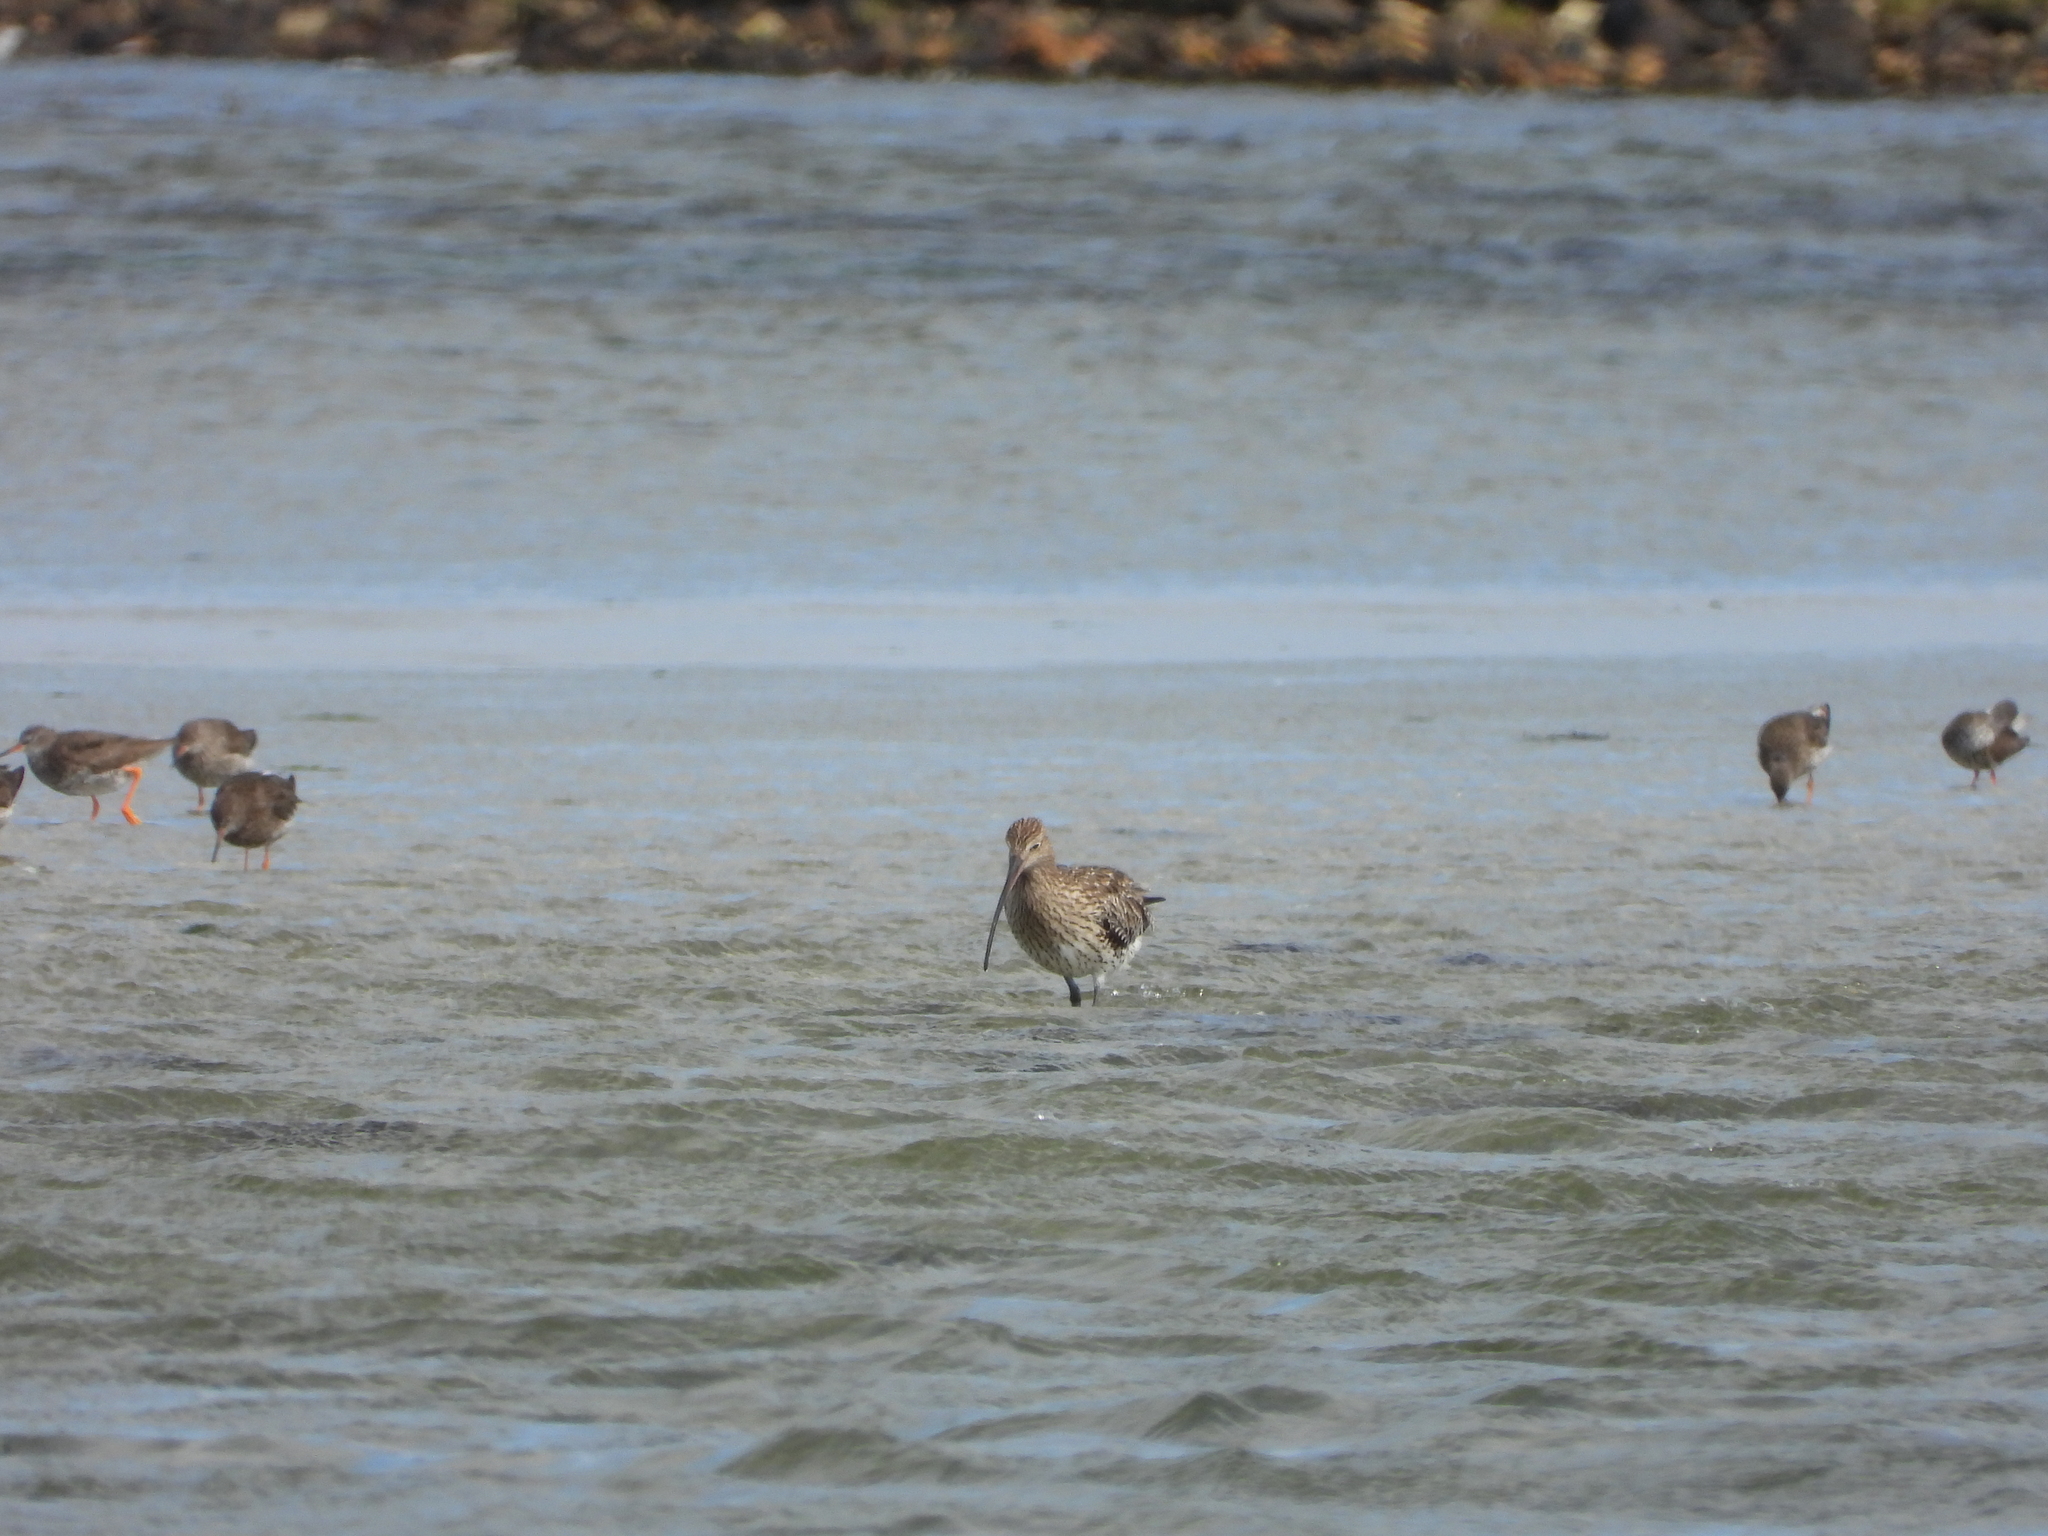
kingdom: Animalia
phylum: Chordata
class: Aves
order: Charadriiformes
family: Scolopacidae
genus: Numenius
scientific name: Numenius arquata
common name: Eurasian curlew
